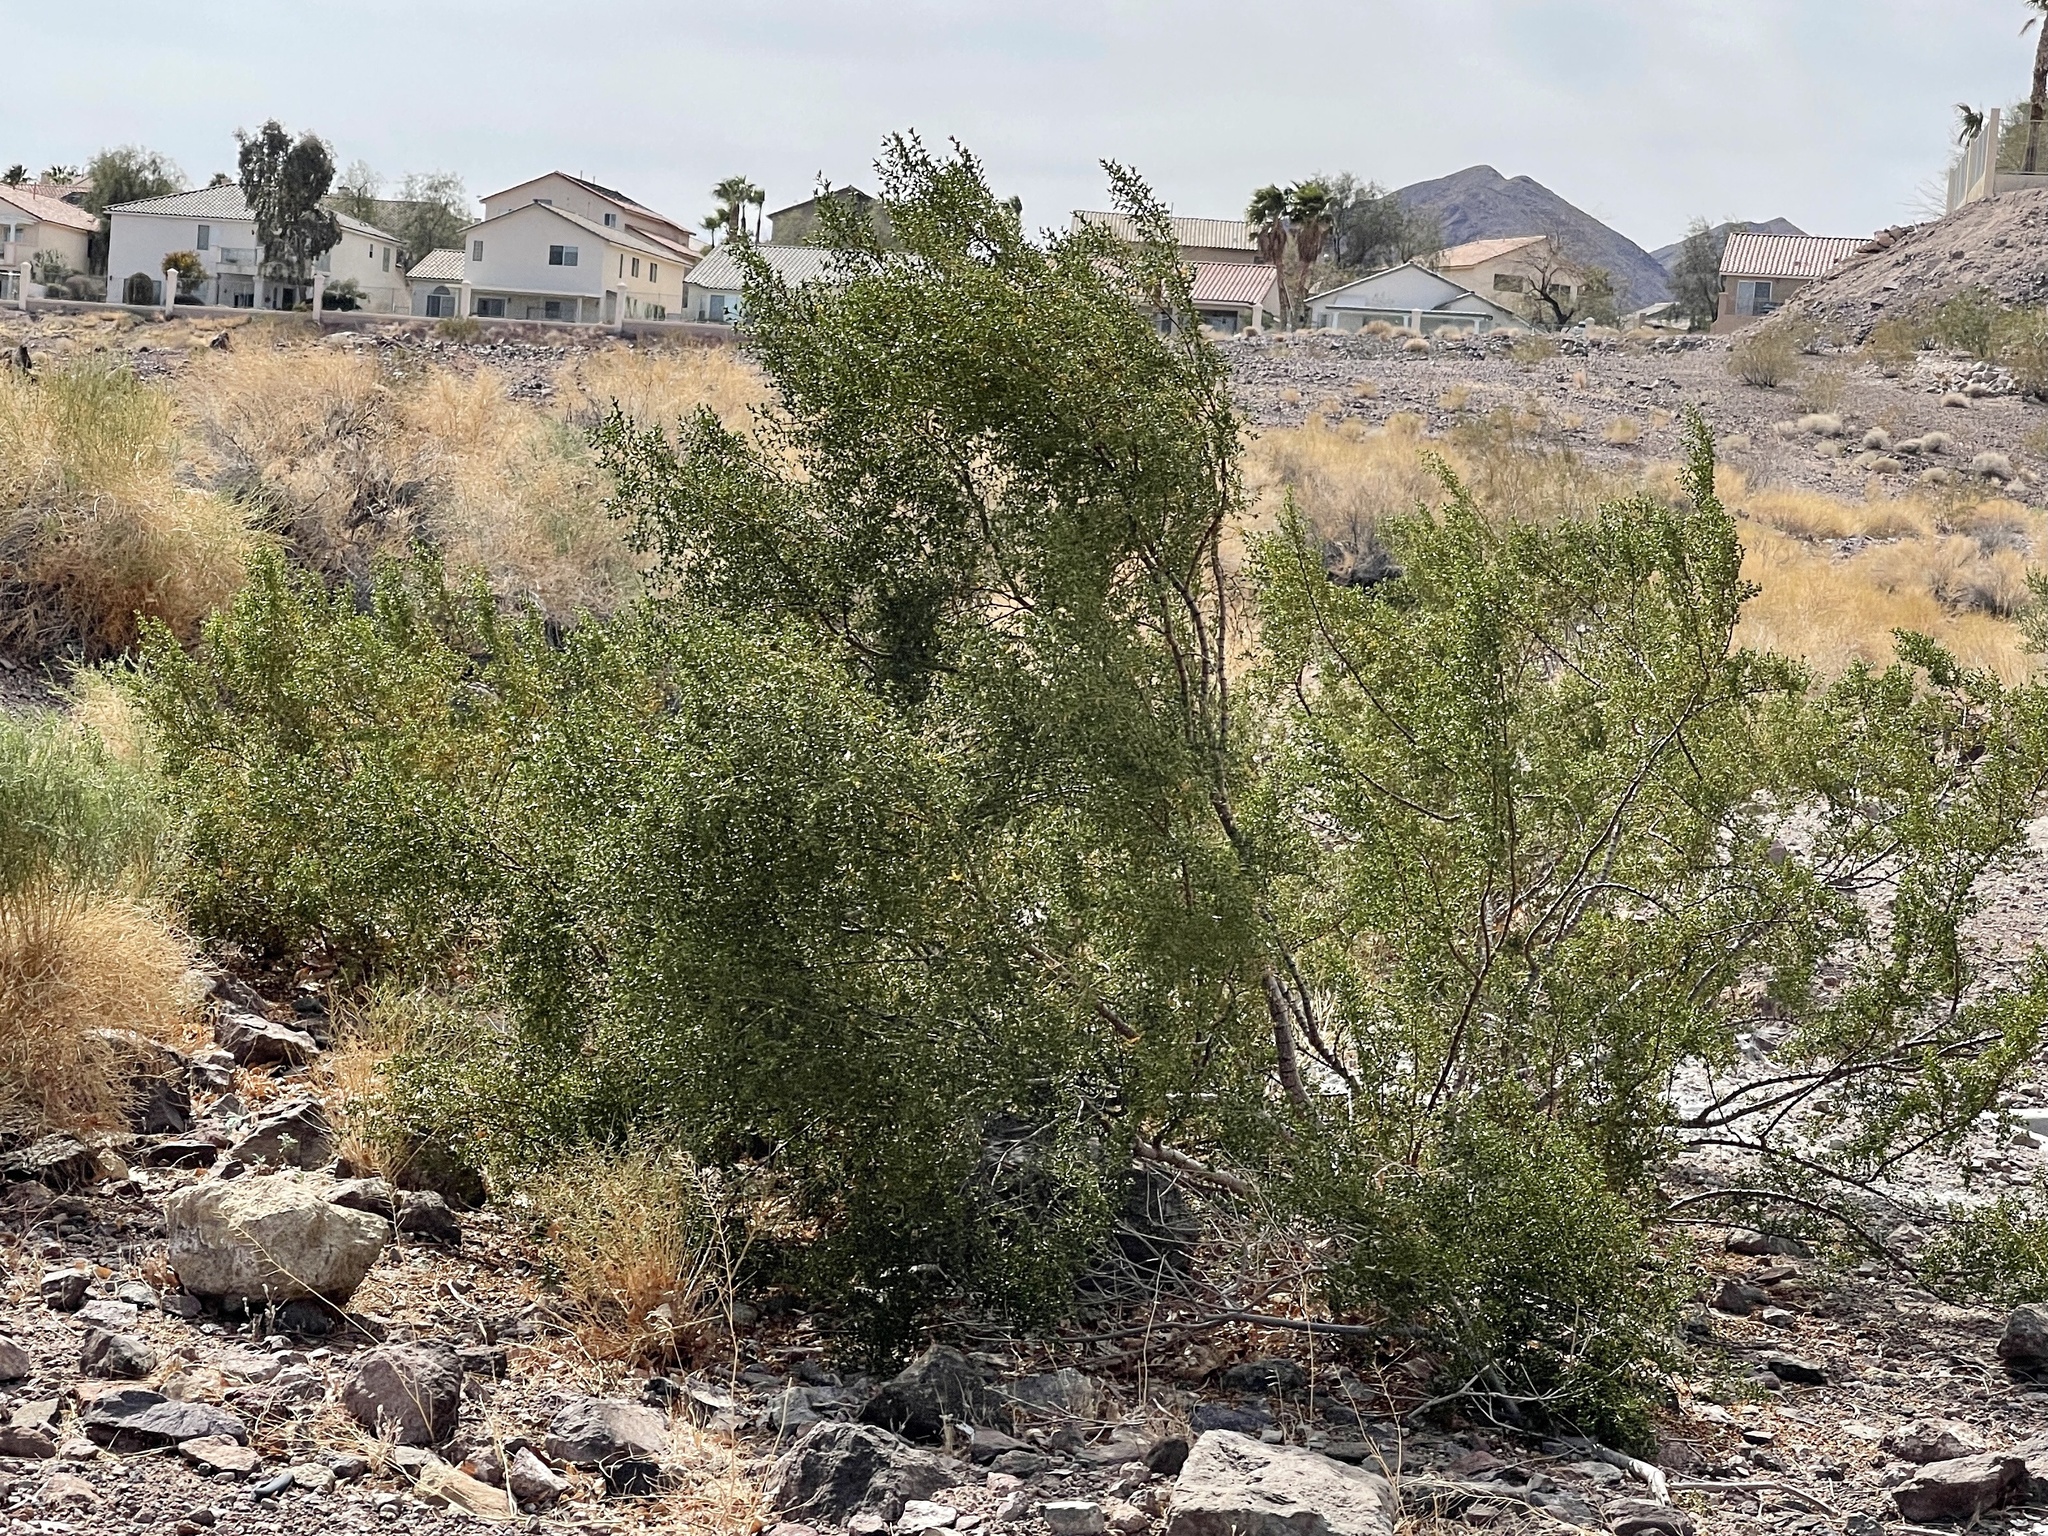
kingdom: Plantae
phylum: Tracheophyta
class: Magnoliopsida
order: Zygophyllales
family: Zygophyllaceae
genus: Larrea
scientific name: Larrea tridentata
